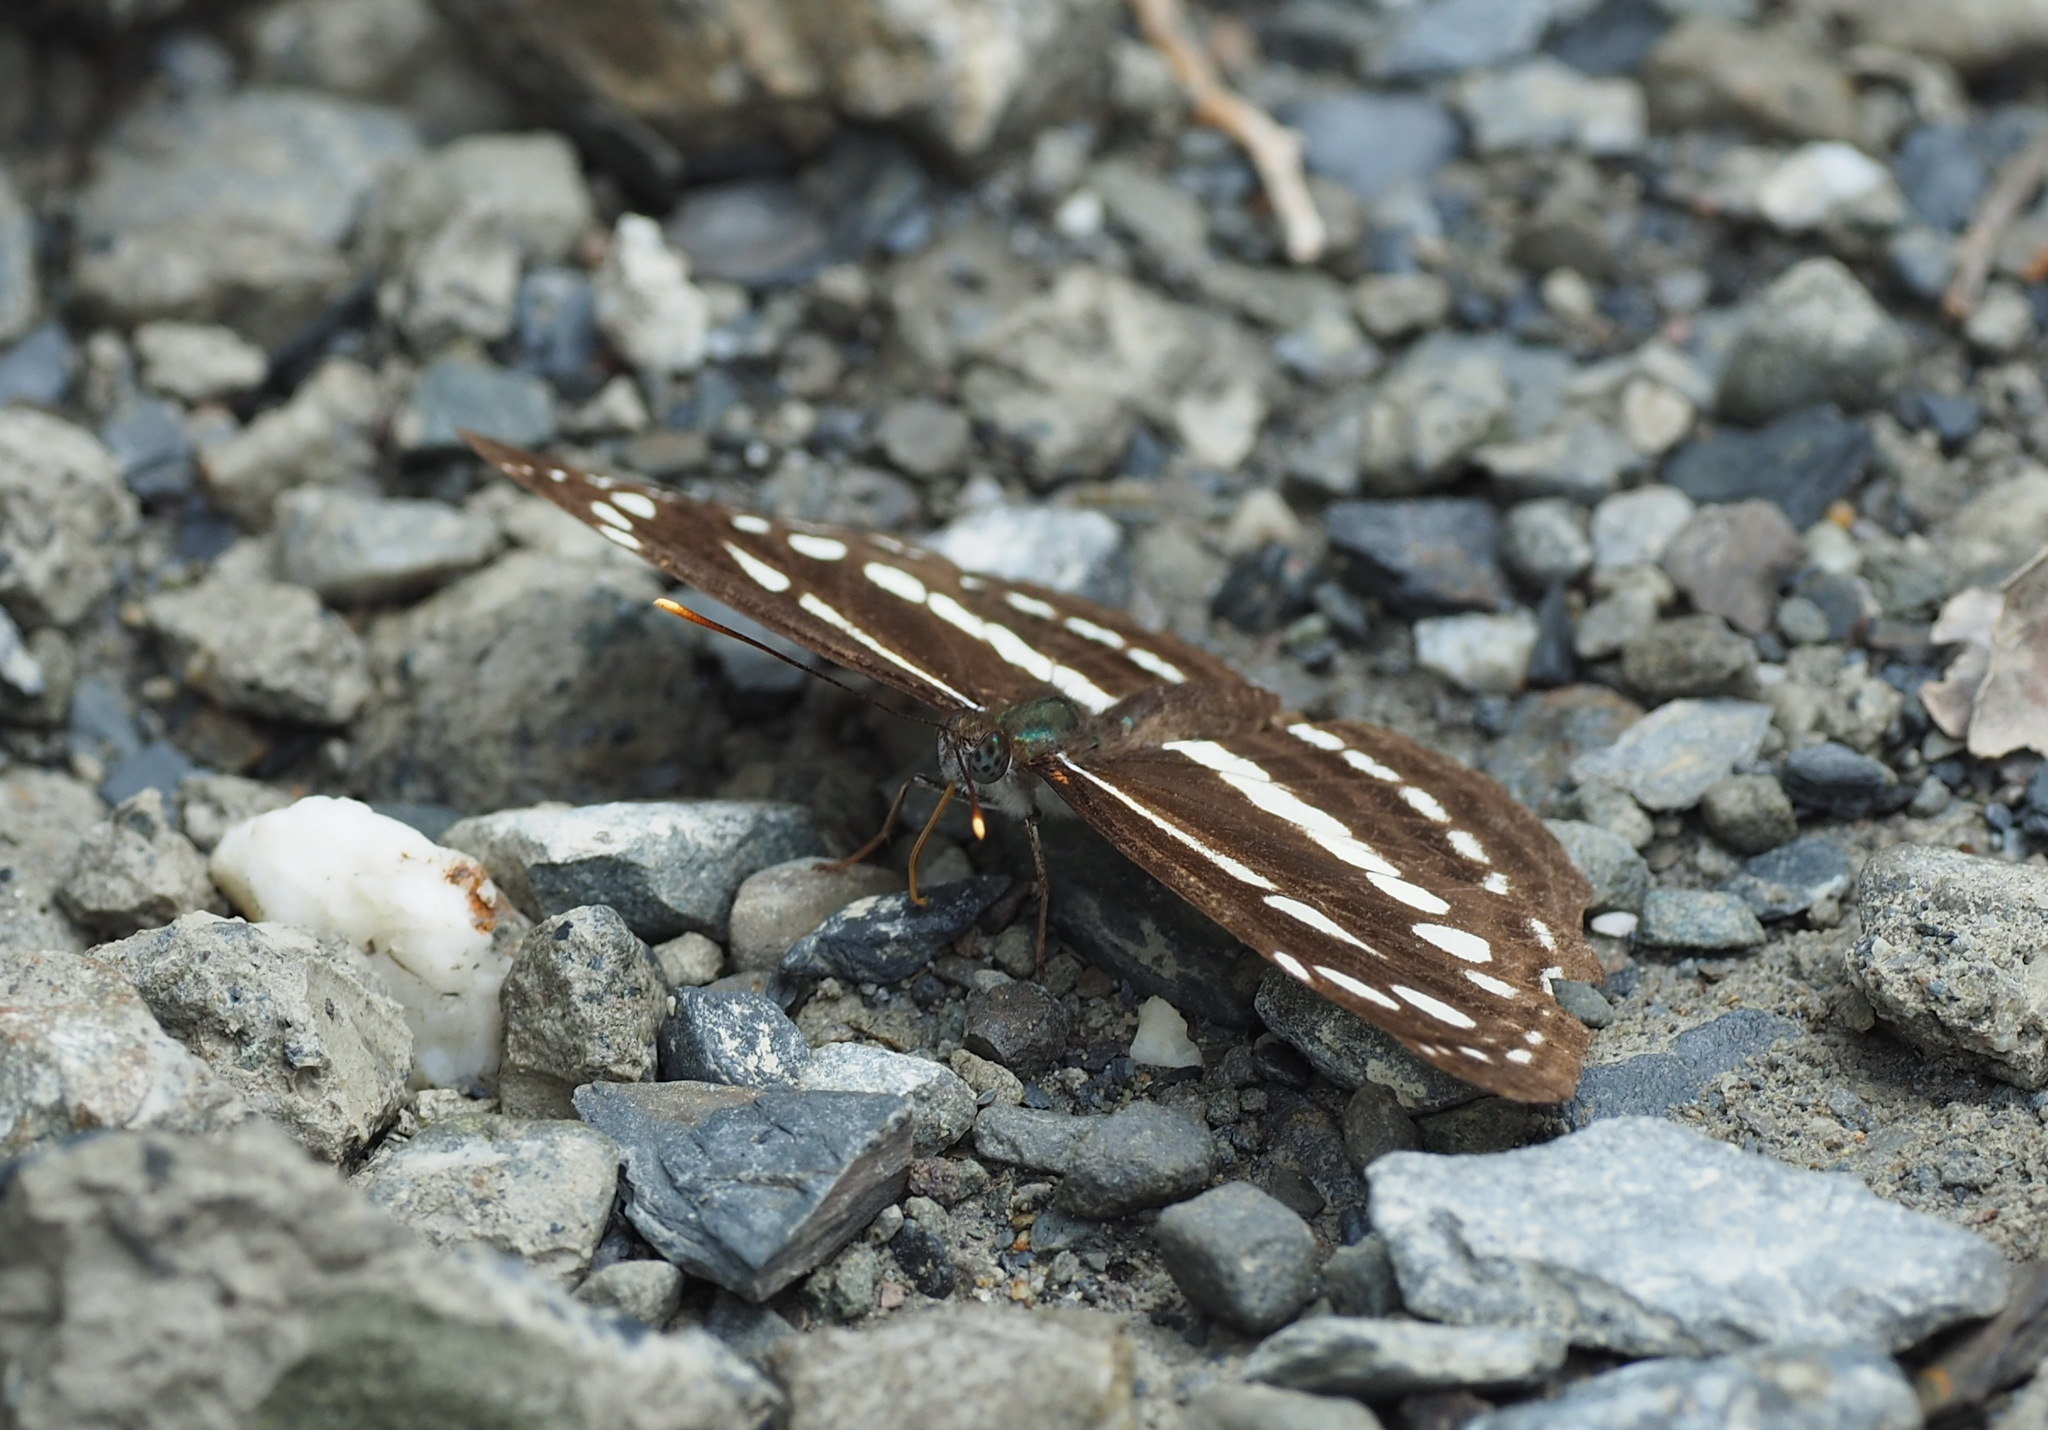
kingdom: Animalia
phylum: Arthropoda
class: Insecta
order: Lepidoptera
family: Nymphalidae
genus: Neptis
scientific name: Neptis nata
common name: Sullied brown sailer
